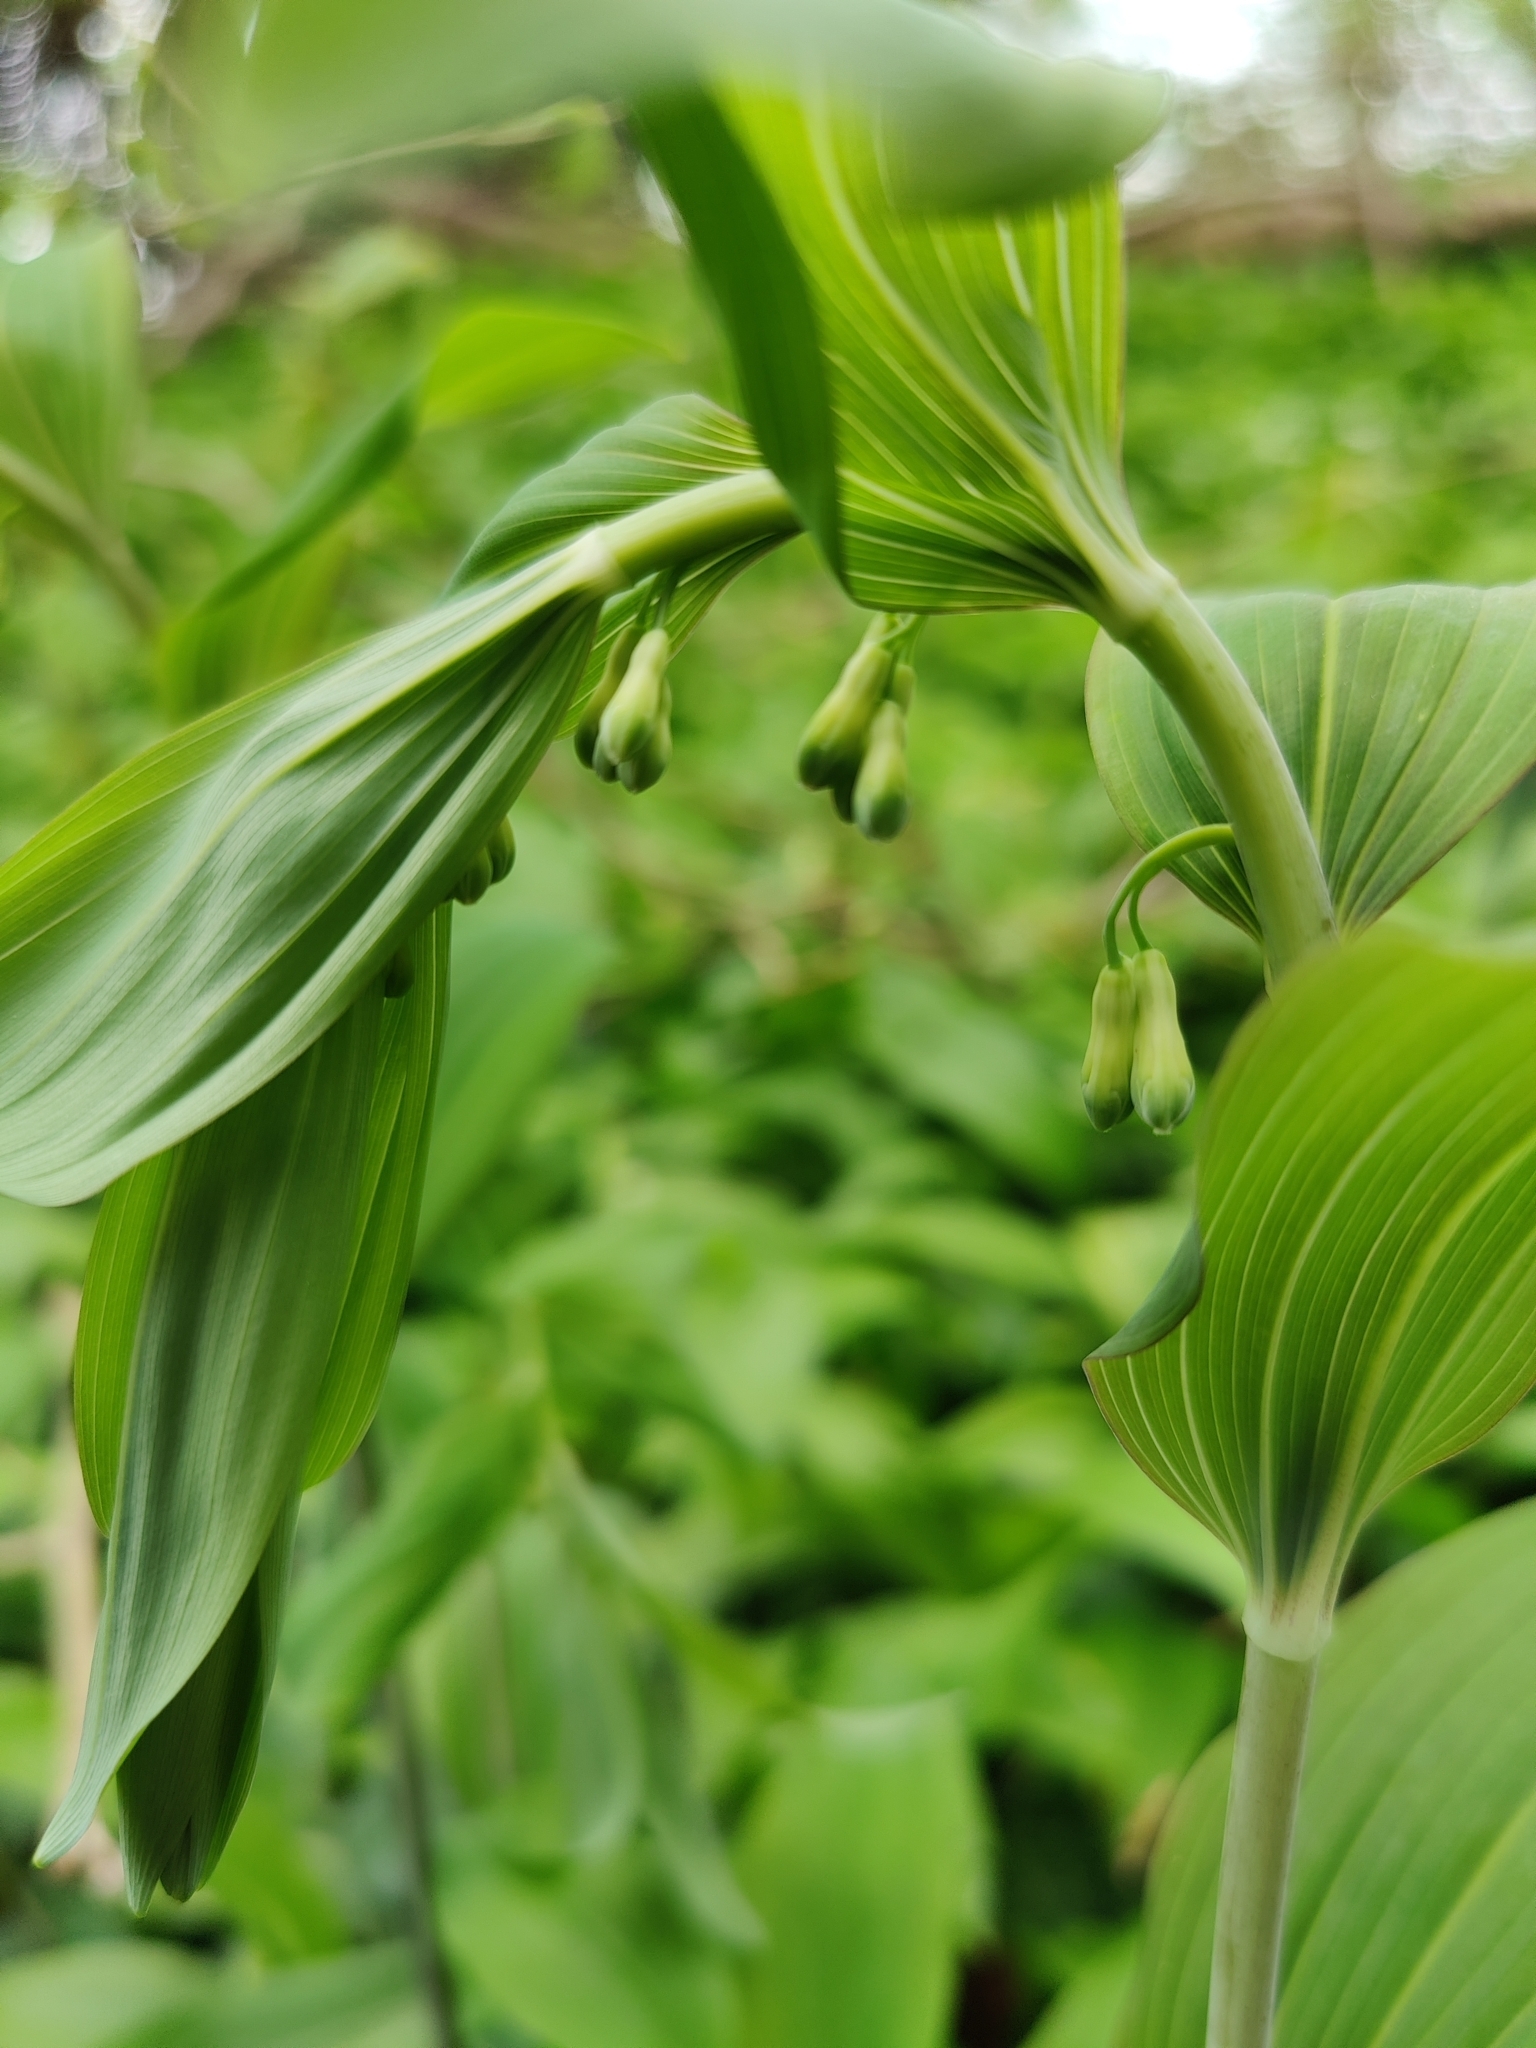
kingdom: Plantae
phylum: Tracheophyta
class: Liliopsida
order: Asparagales
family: Asparagaceae
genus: Polygonatum
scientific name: Polygonatum multiflorum
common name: Solomon's-seal
